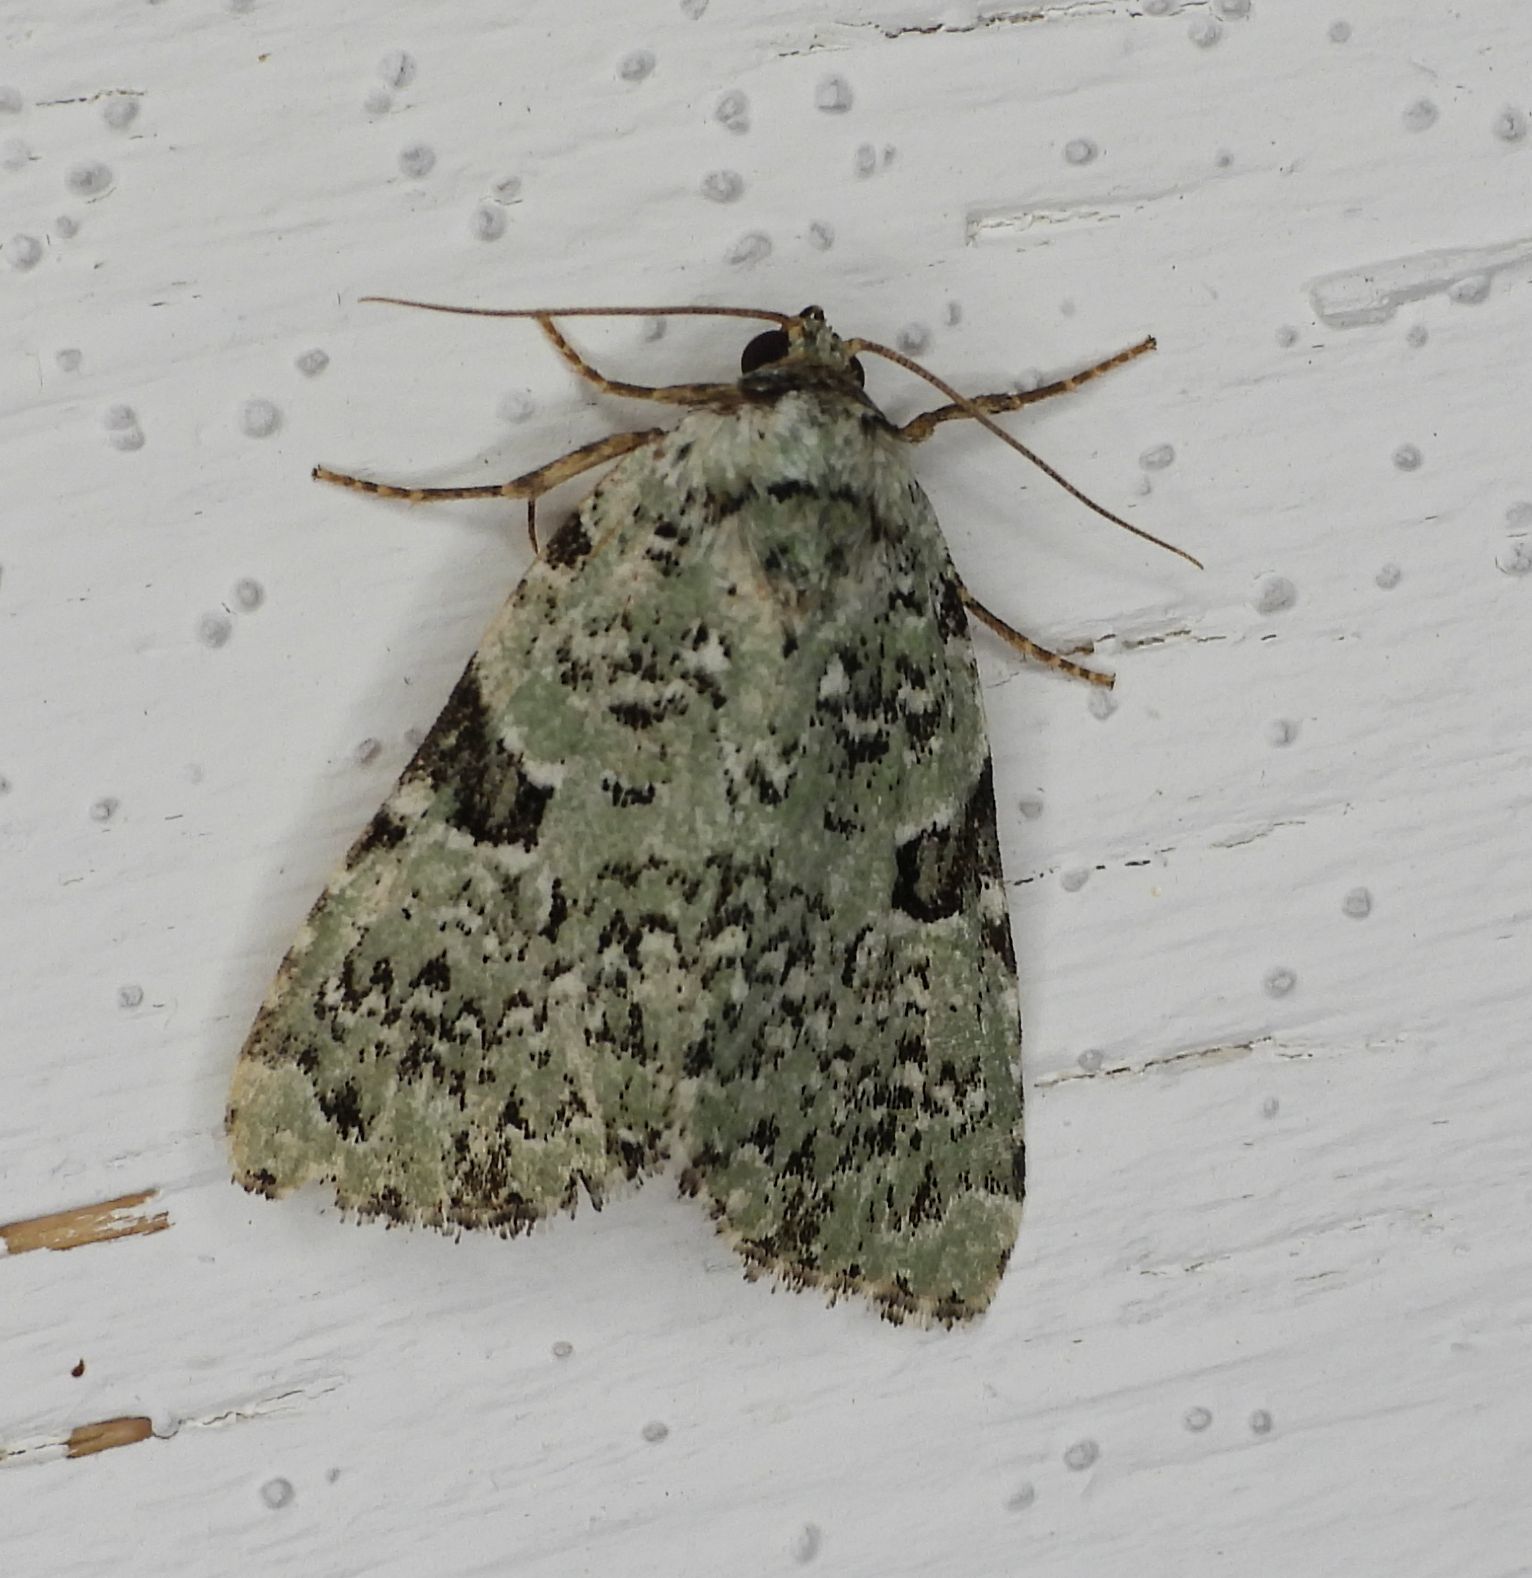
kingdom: Animalia
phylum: Arthropoda
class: Insecta
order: Lepidoptera
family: Noctuidae
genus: Leuconycta
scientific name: Leuconycta diphteroides
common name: Green leuconycta moth
